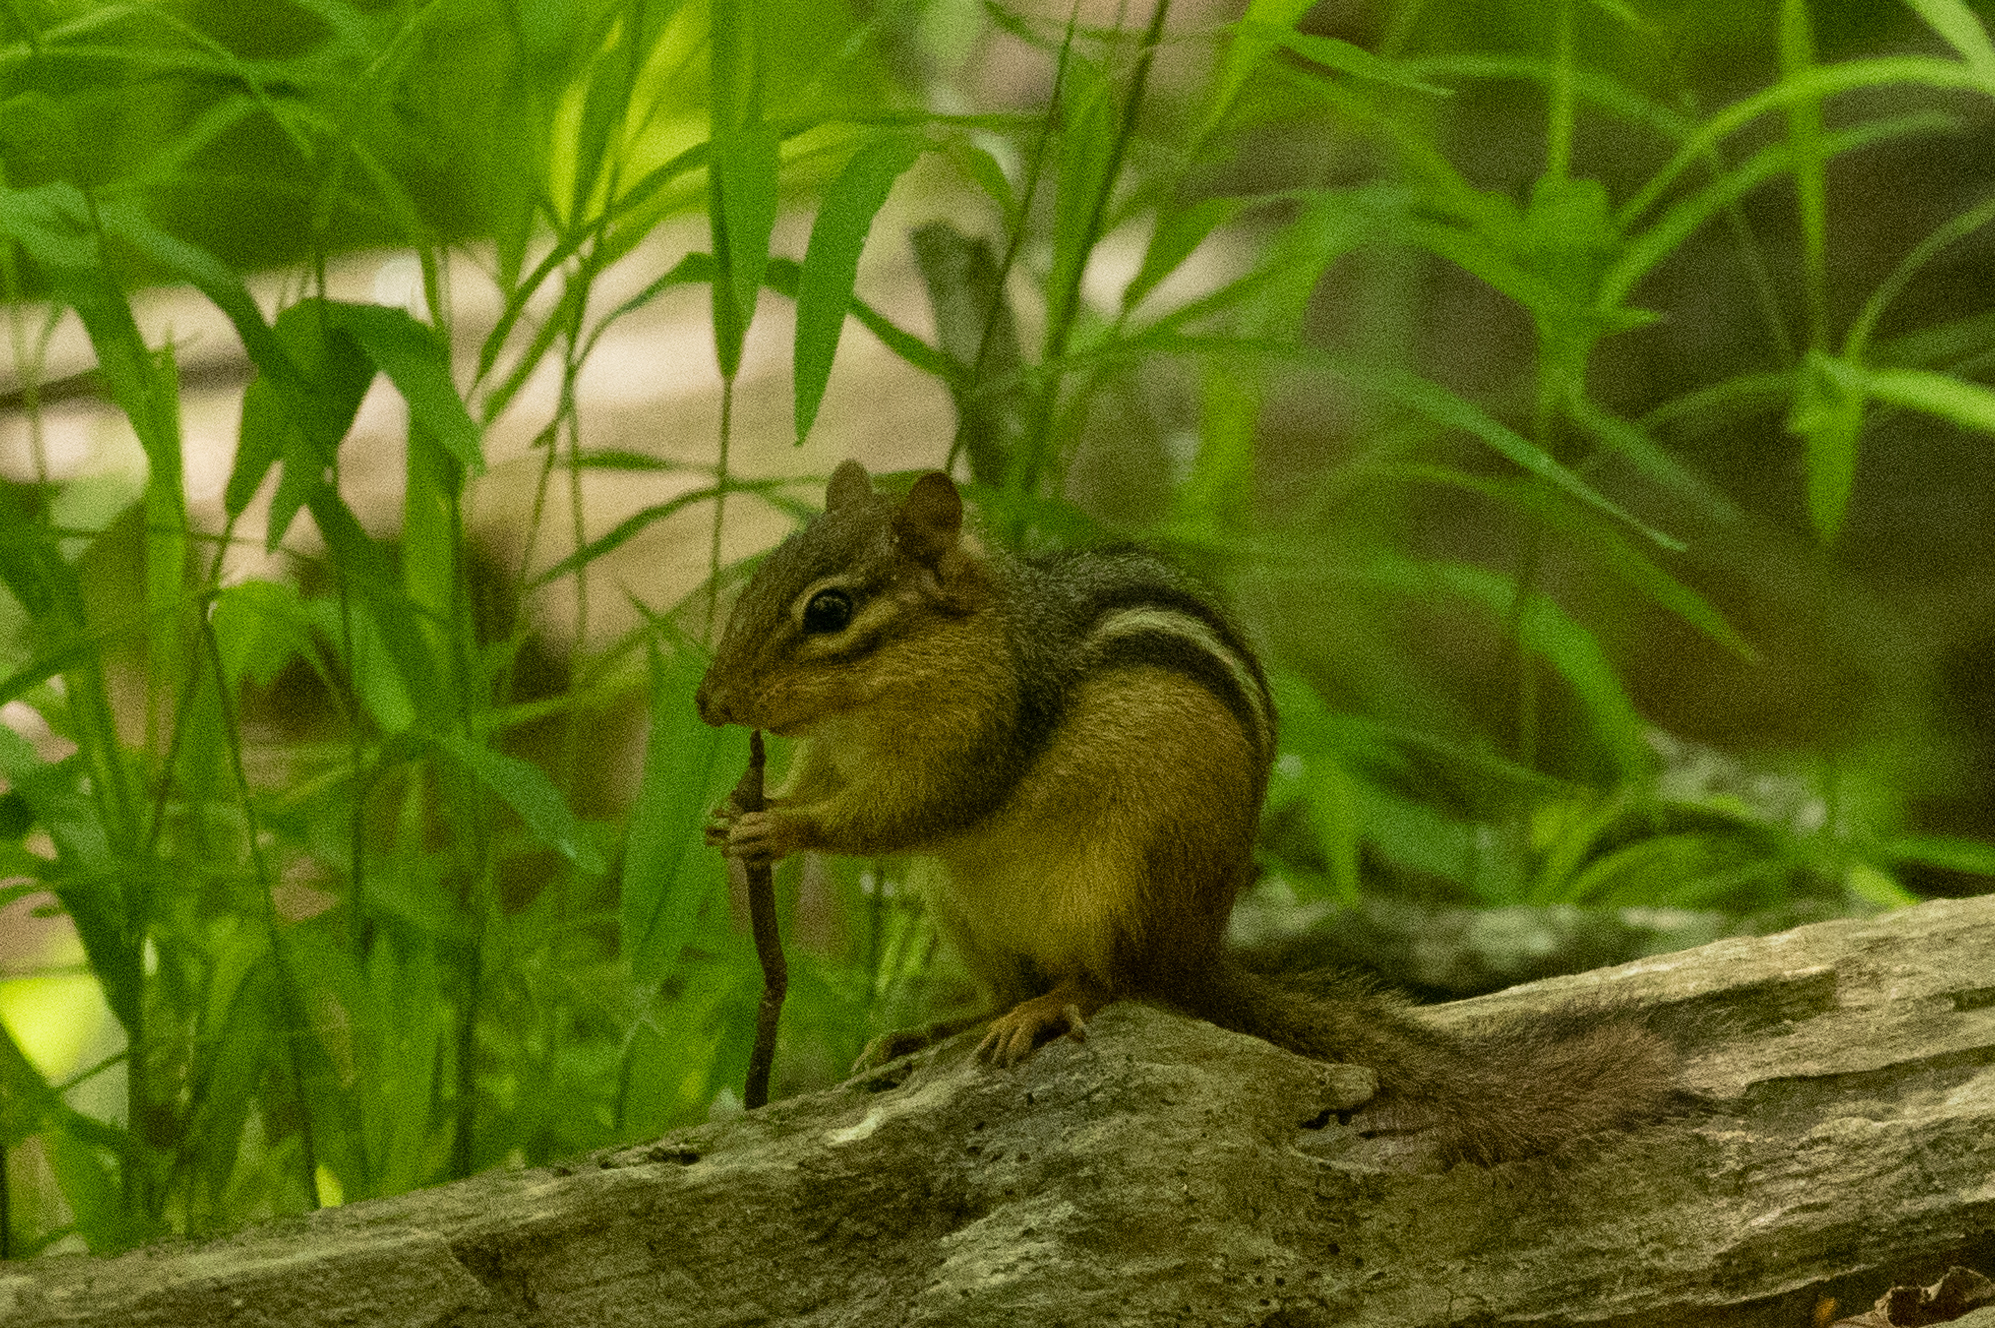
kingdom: Animalia
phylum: Chordata
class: Mammalia
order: Rodentia
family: Sciuridae
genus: Tamias
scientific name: Tamias striatus
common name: Eastern chipmunk
